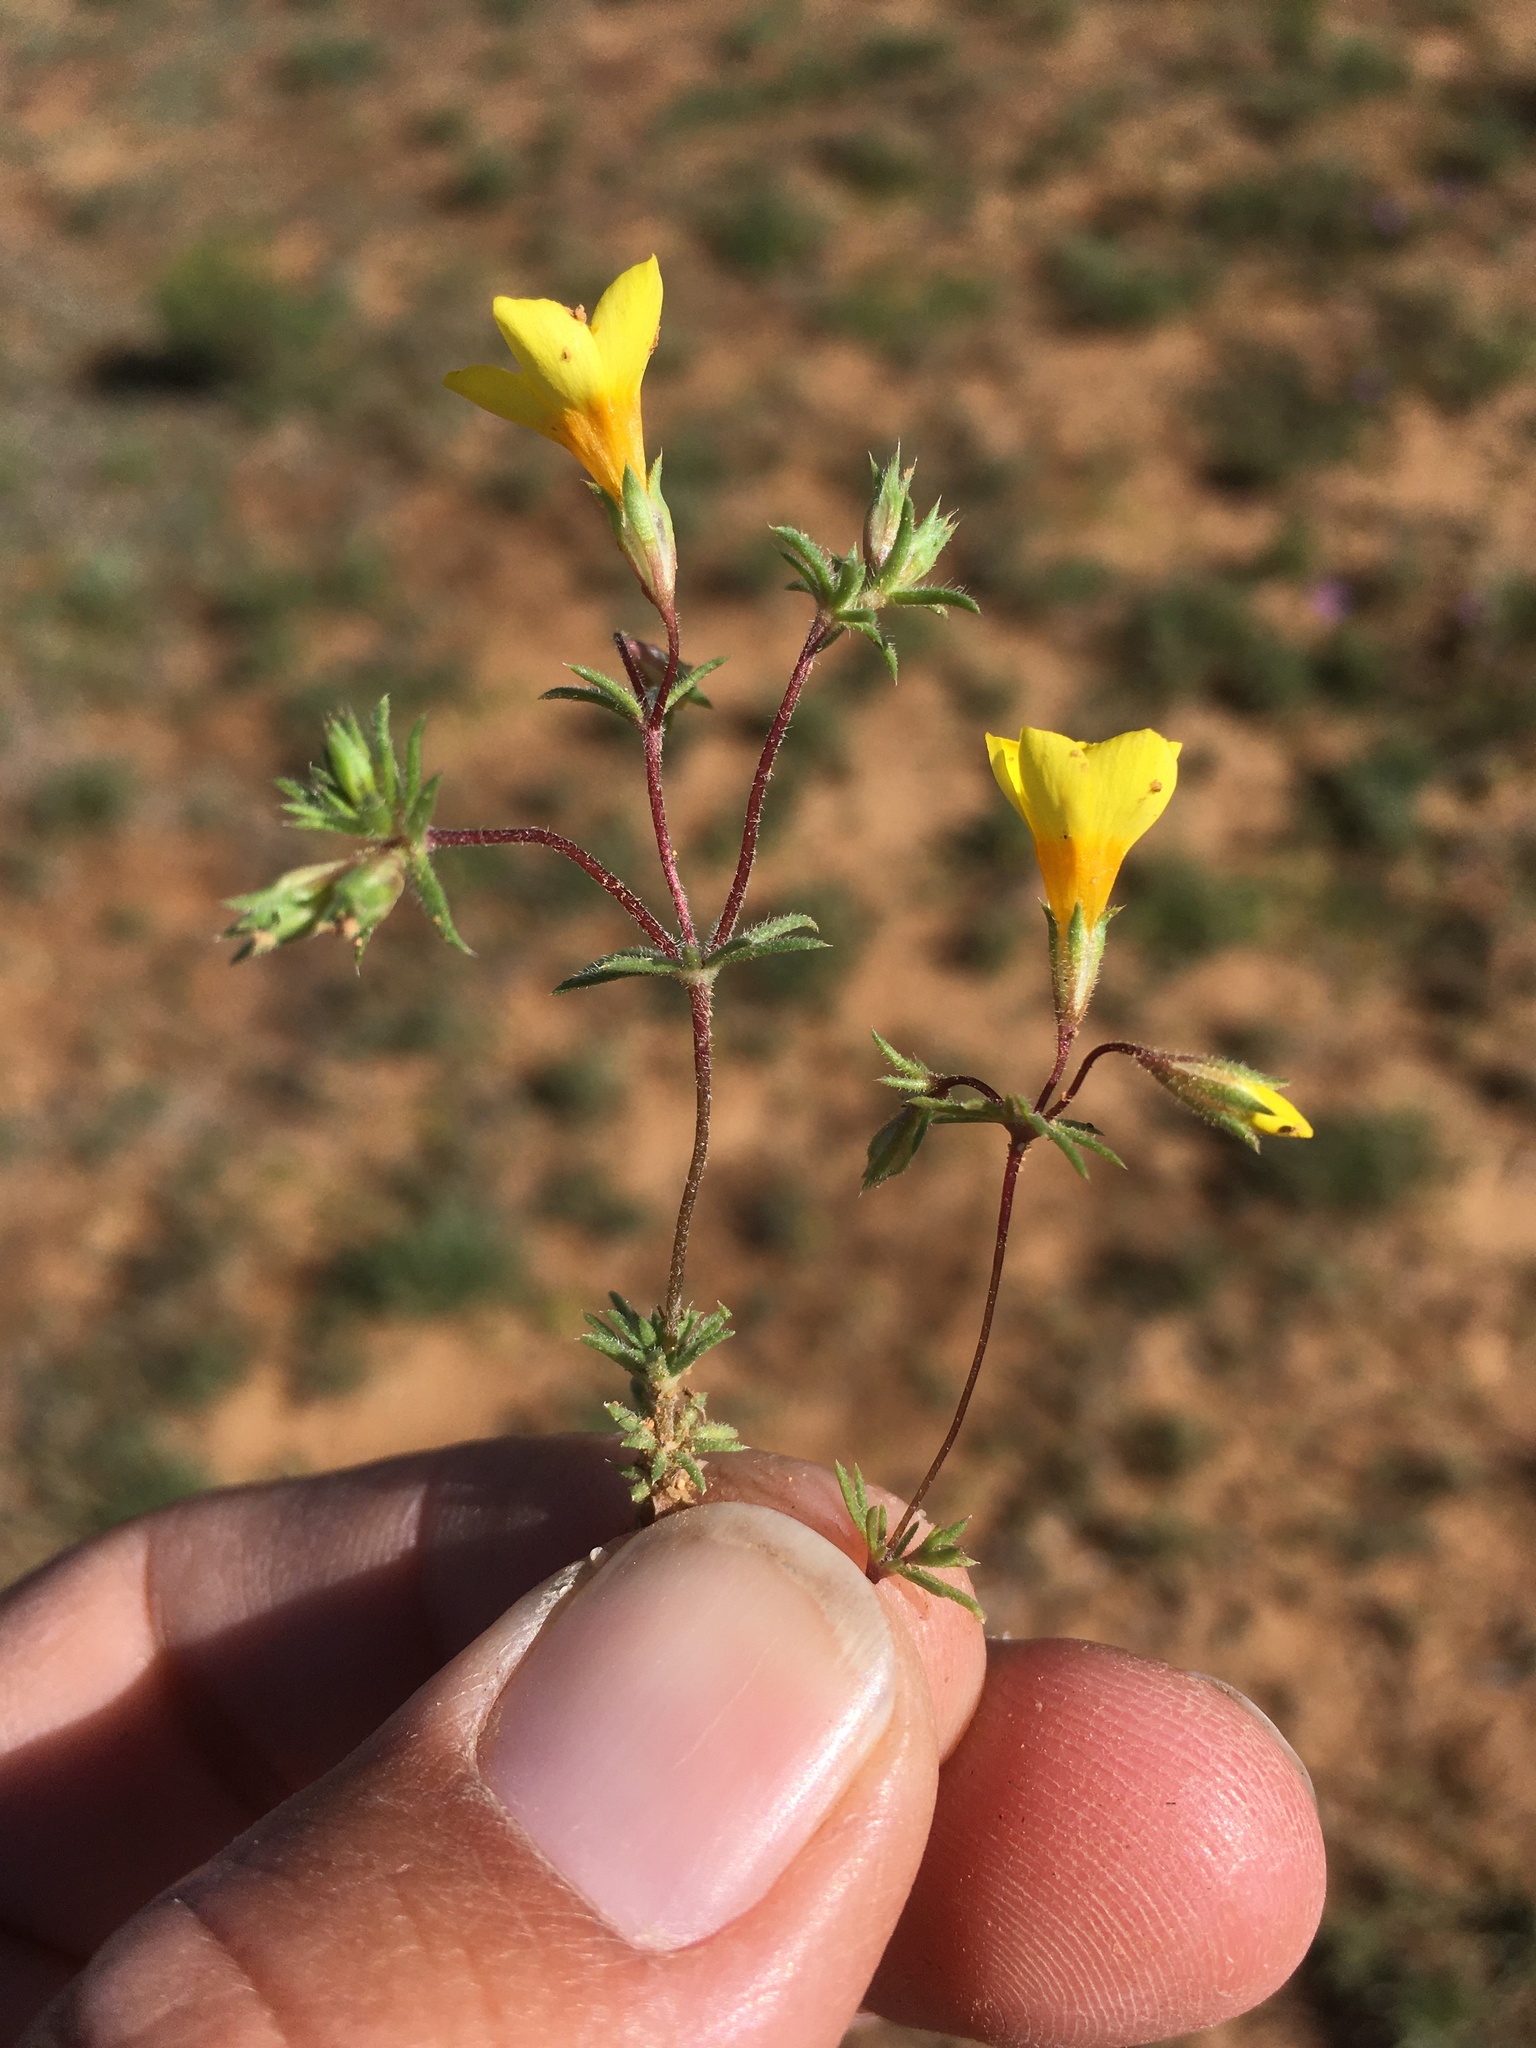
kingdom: Plantae
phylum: Tracheophyta
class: Magnoliopsida
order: Ericales
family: Polemoniaceae
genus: Leptosiphon
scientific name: Leptosiphon chrysanthus
